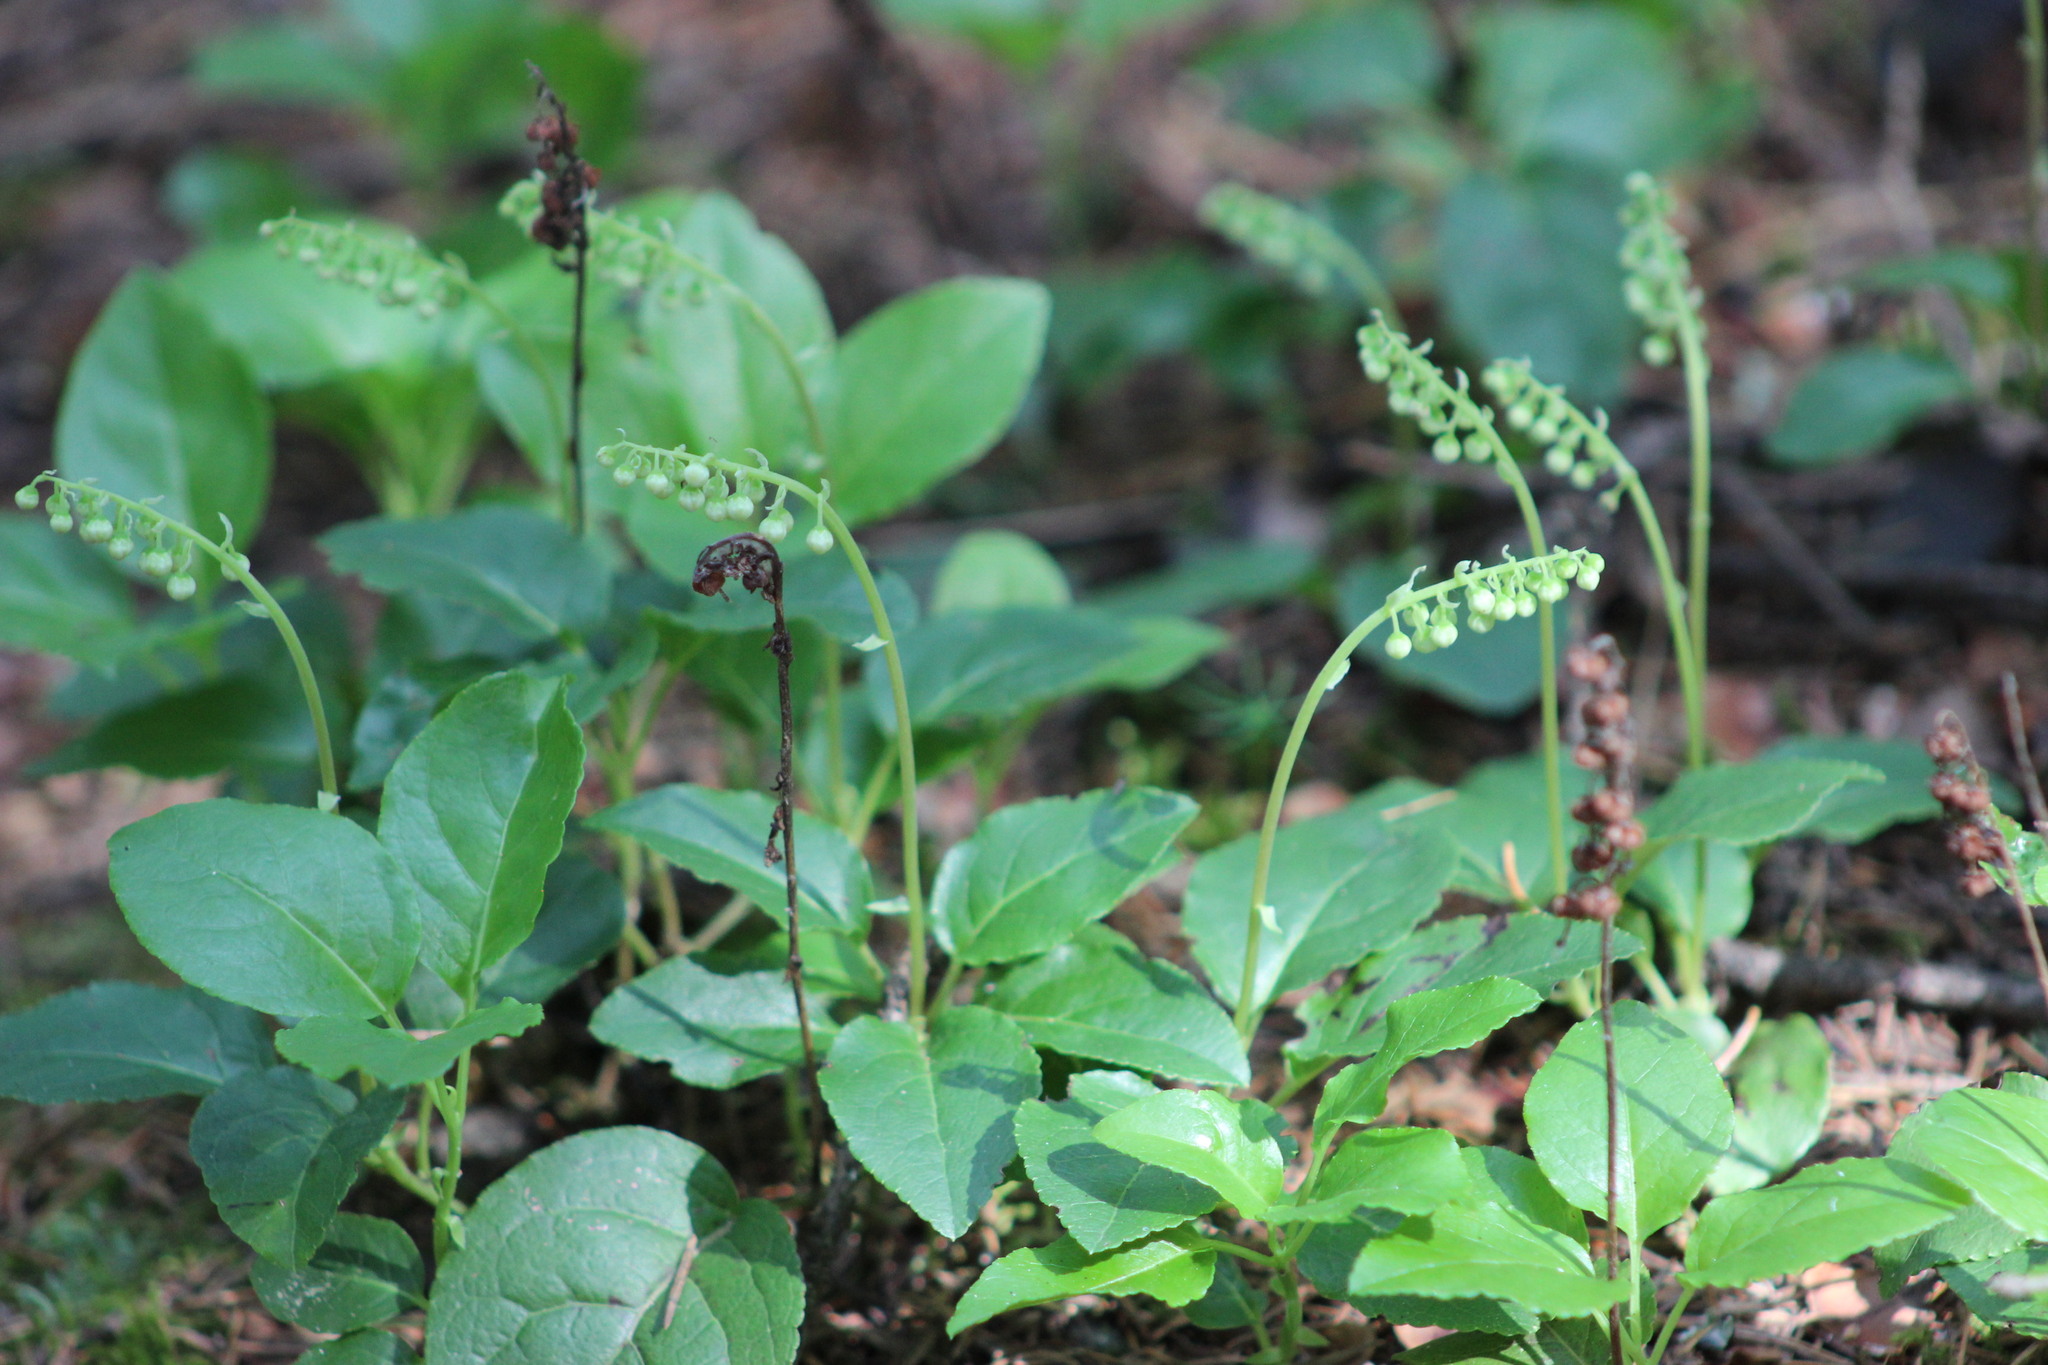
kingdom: Plantae
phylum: Tracheophyta
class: Magnoliopsida
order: Ericales
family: Ericaceae
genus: Orthilia
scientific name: Orthilia secunda
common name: One-sided orthilia
